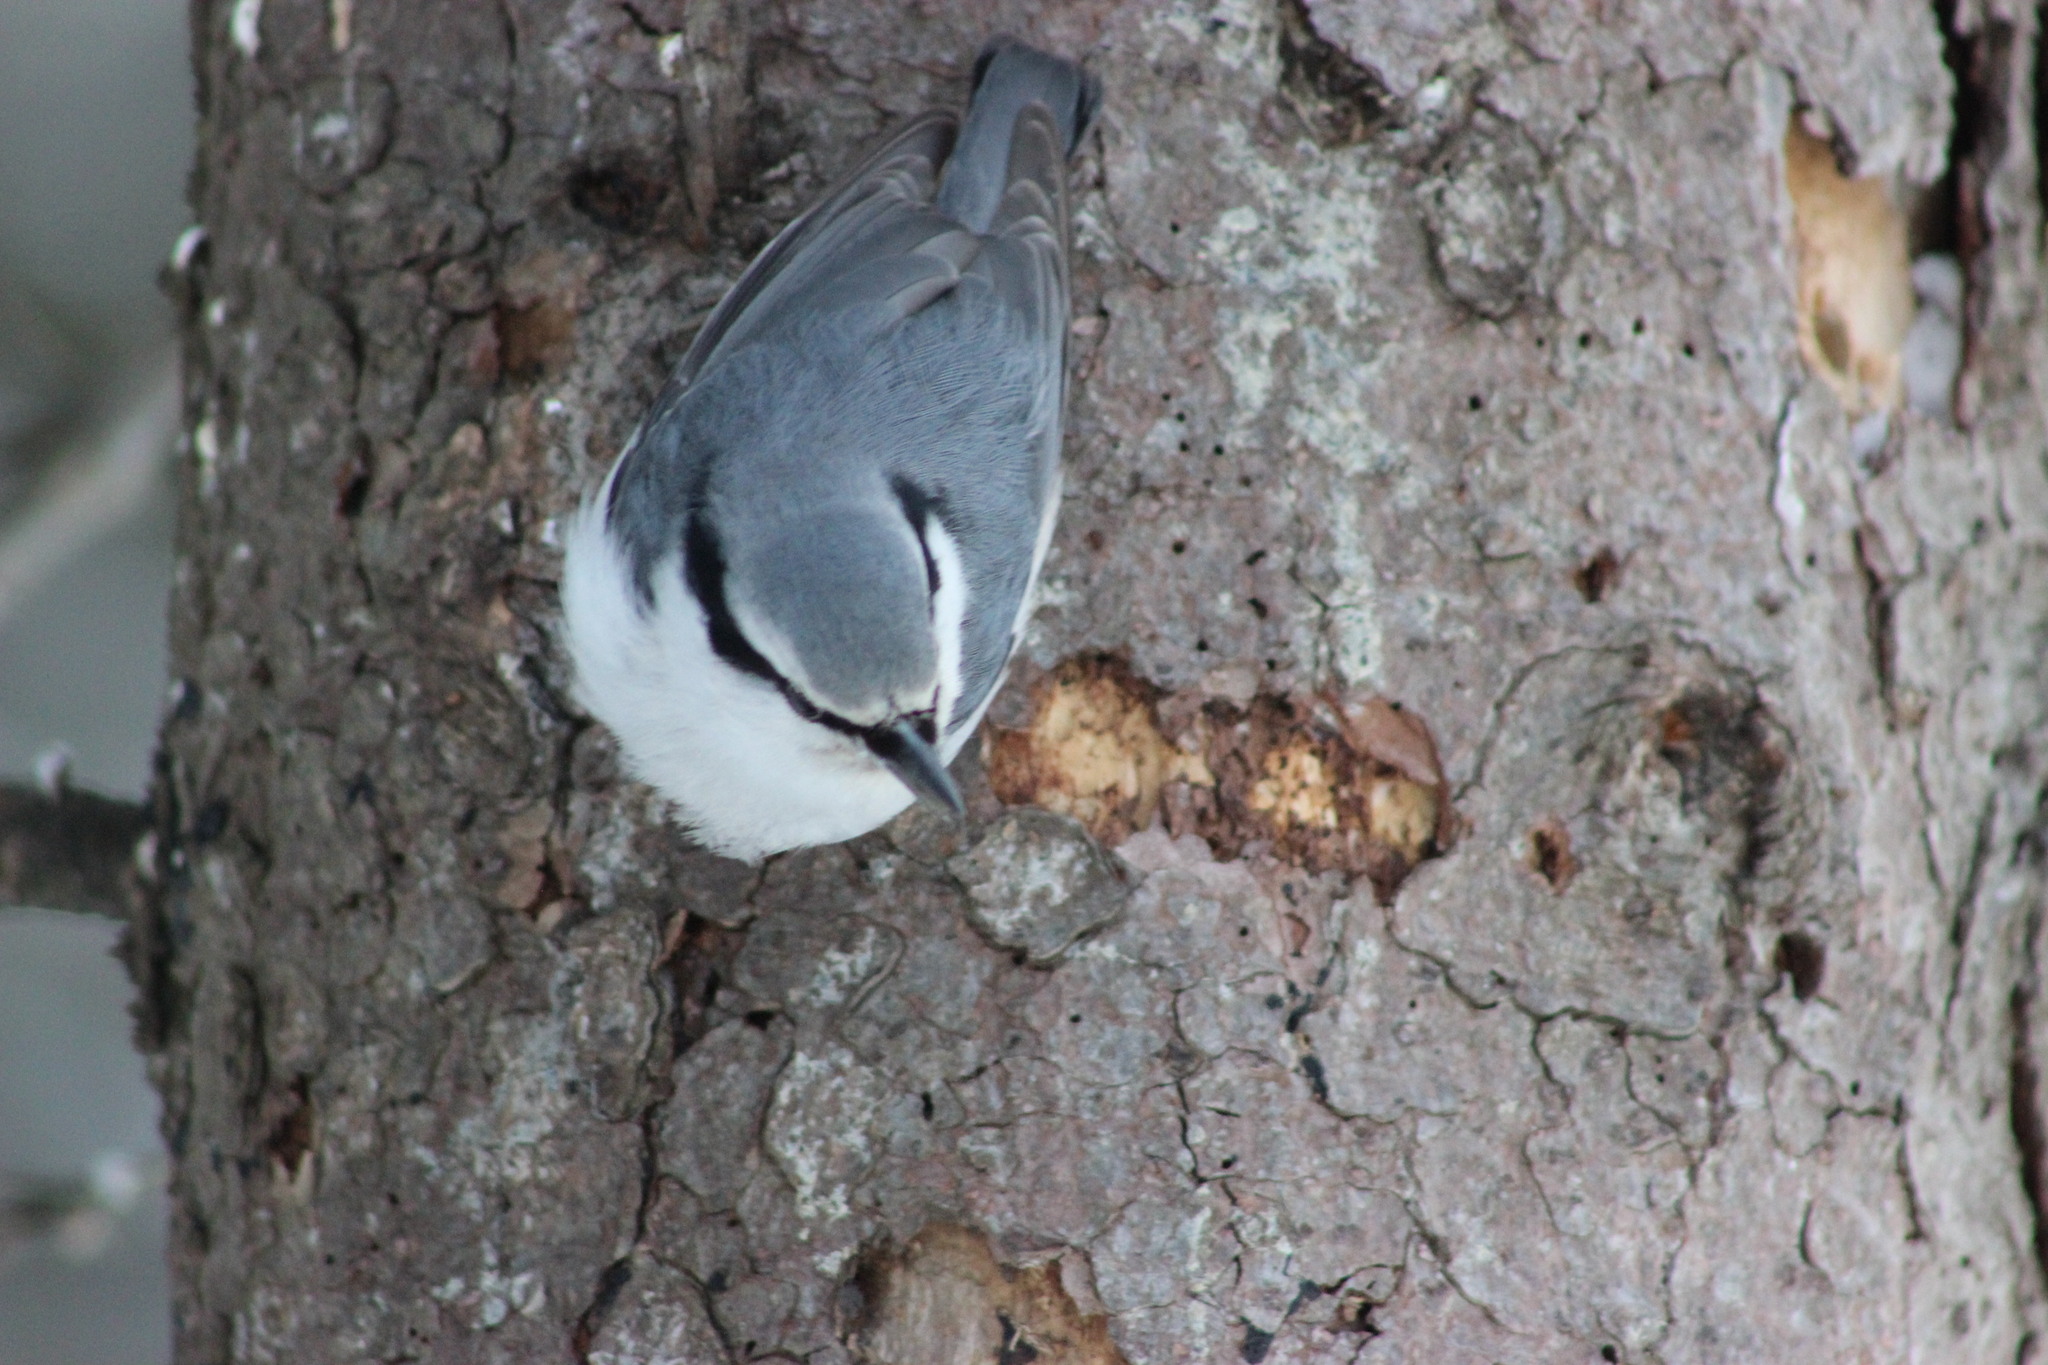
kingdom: Animalia
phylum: Chordata
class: Aves
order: Passeriformes
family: Sittidae
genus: Sitta
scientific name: Sitta europaea
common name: Eurasian nuthatch
